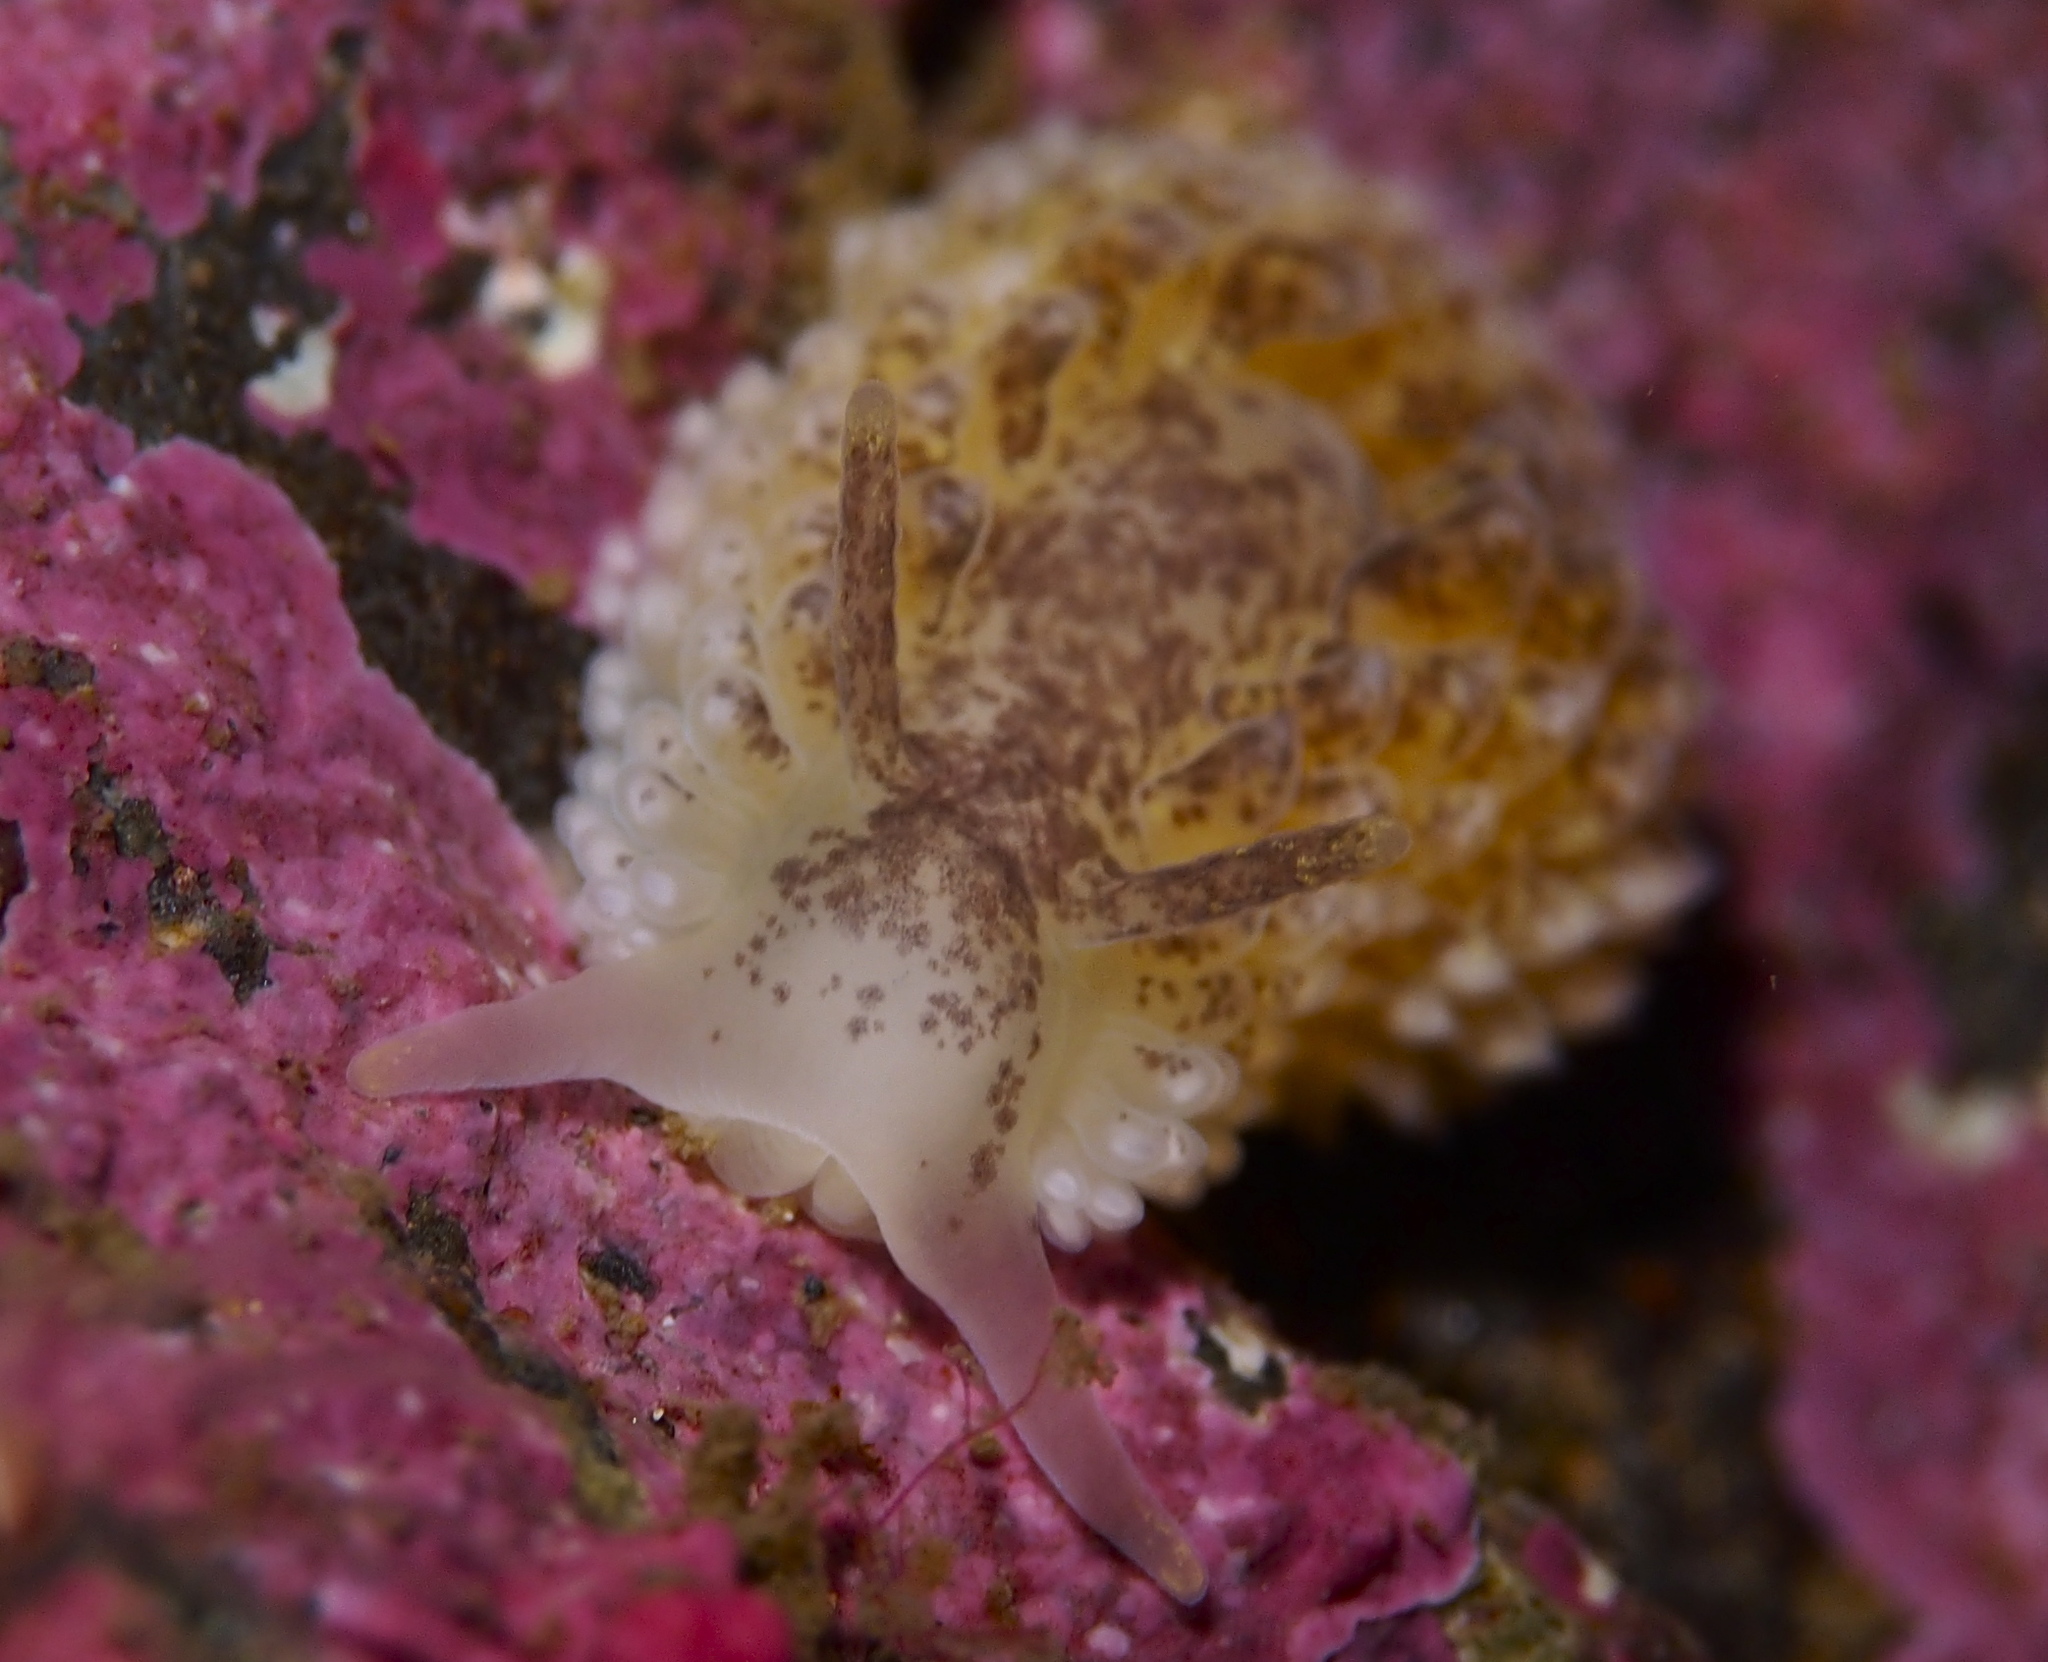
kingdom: Animalia
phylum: Mollusca
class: Gastropoda
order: Nudibranchia
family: Aeolidiidae
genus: Aeolidia
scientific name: Aeolidia papillosa
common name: Common grey sea slug
